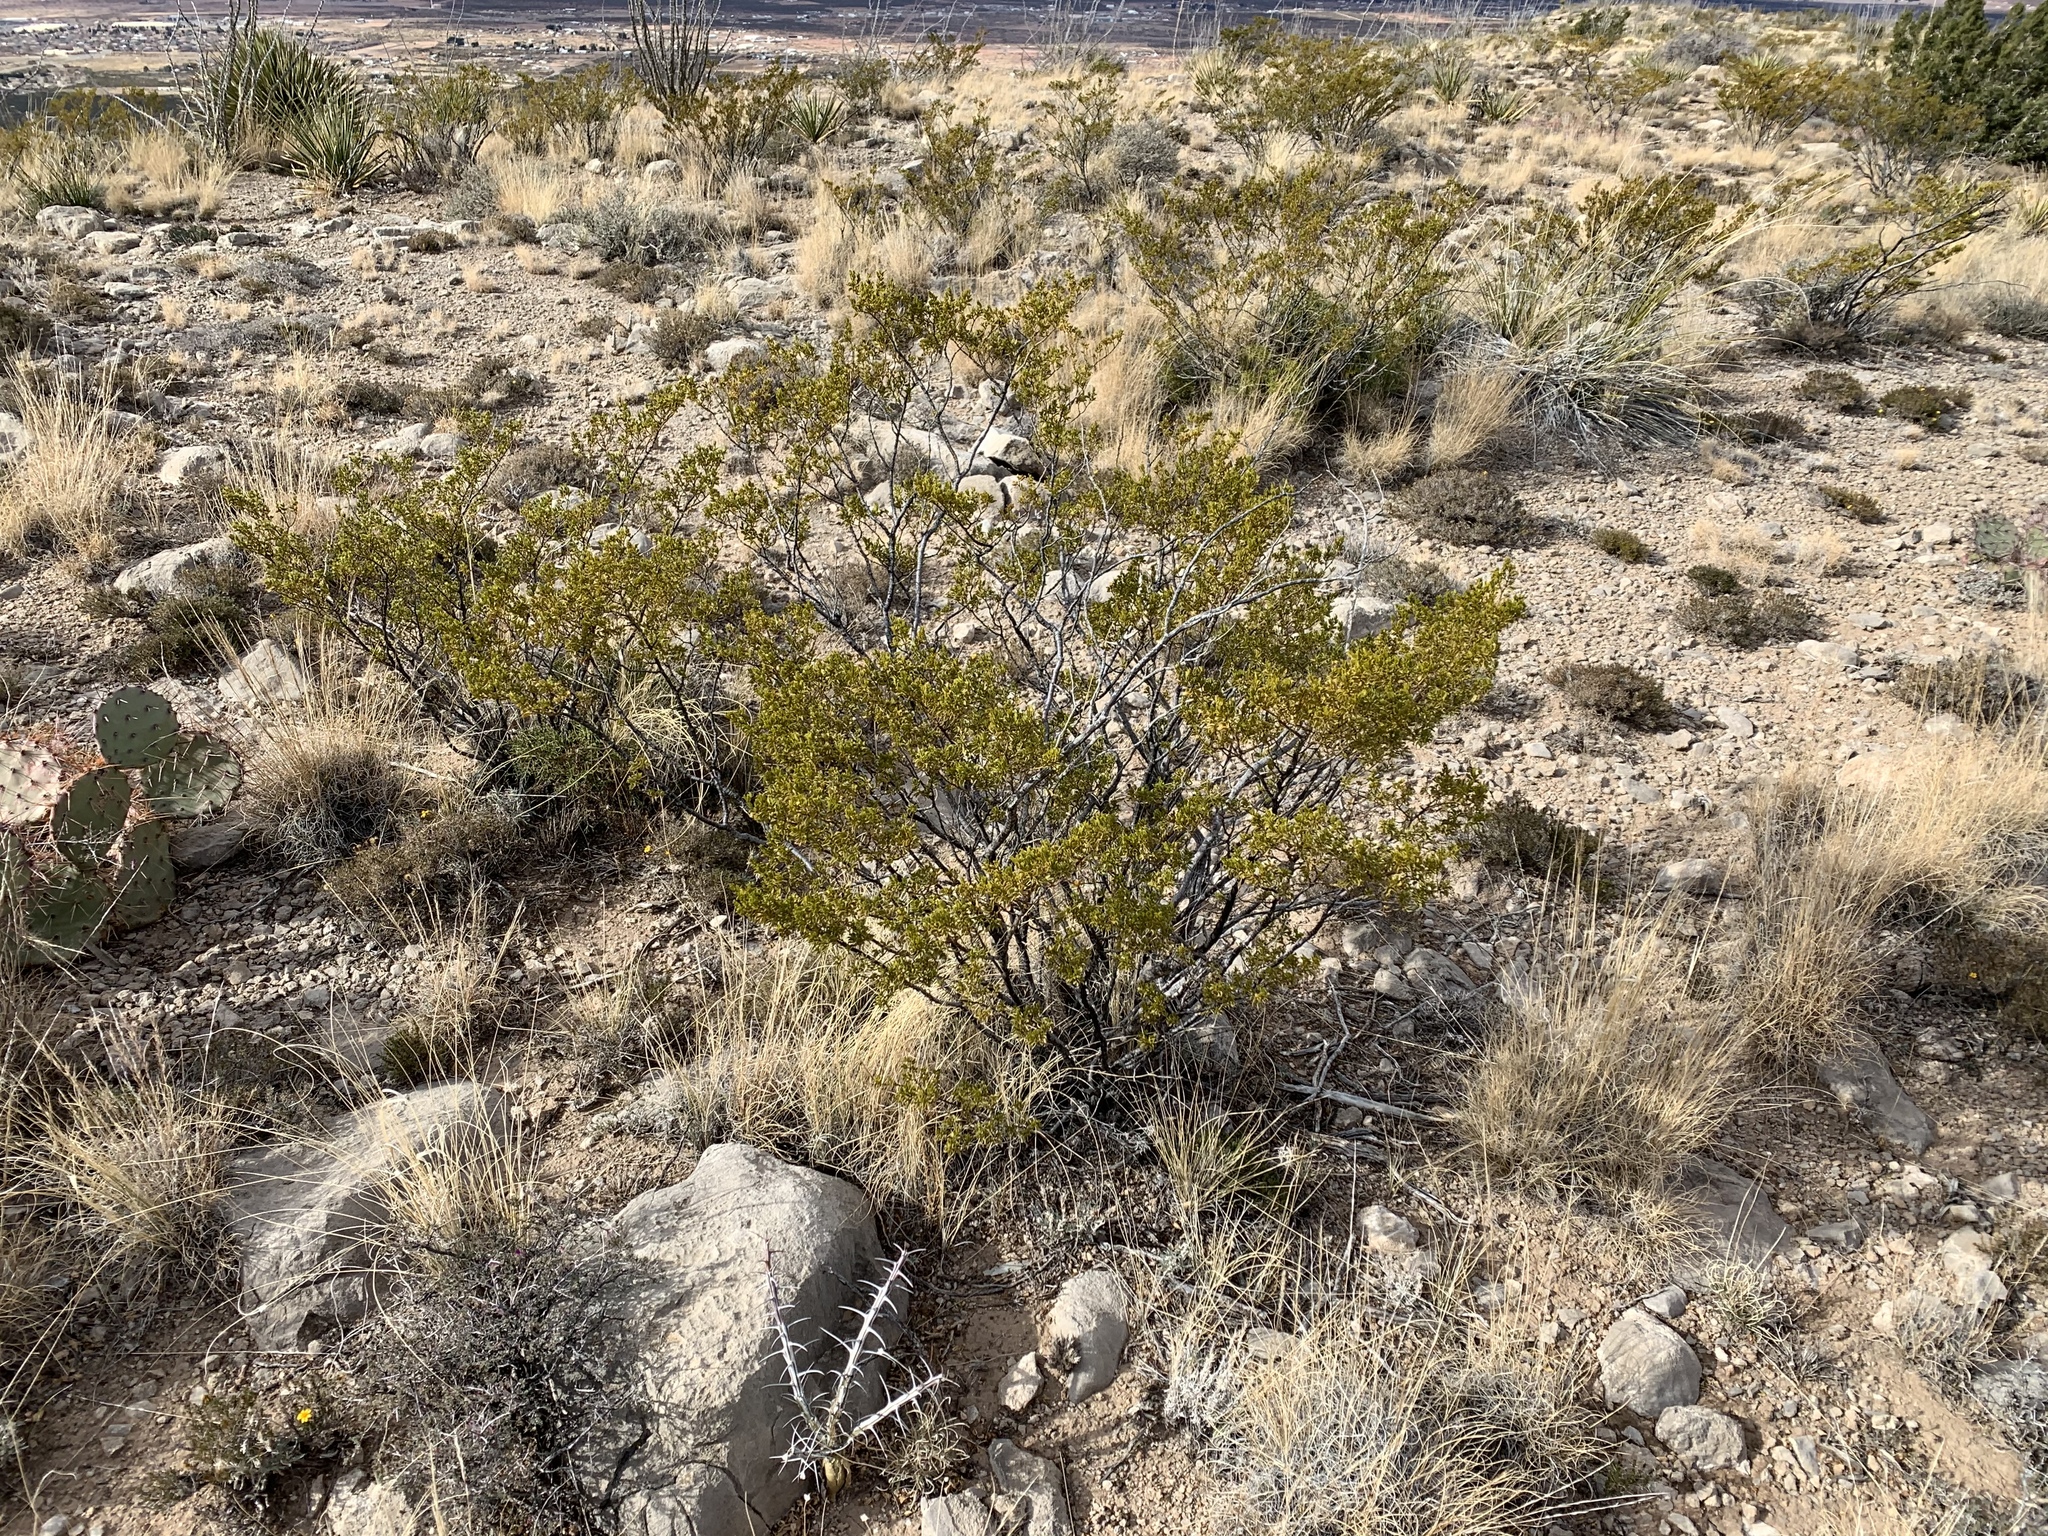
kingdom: Plantae
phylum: Tracheophyta
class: Magnoliopsida
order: Zygophyllales
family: Zygophyllaceae
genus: Larrea
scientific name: Larrea tridentata
